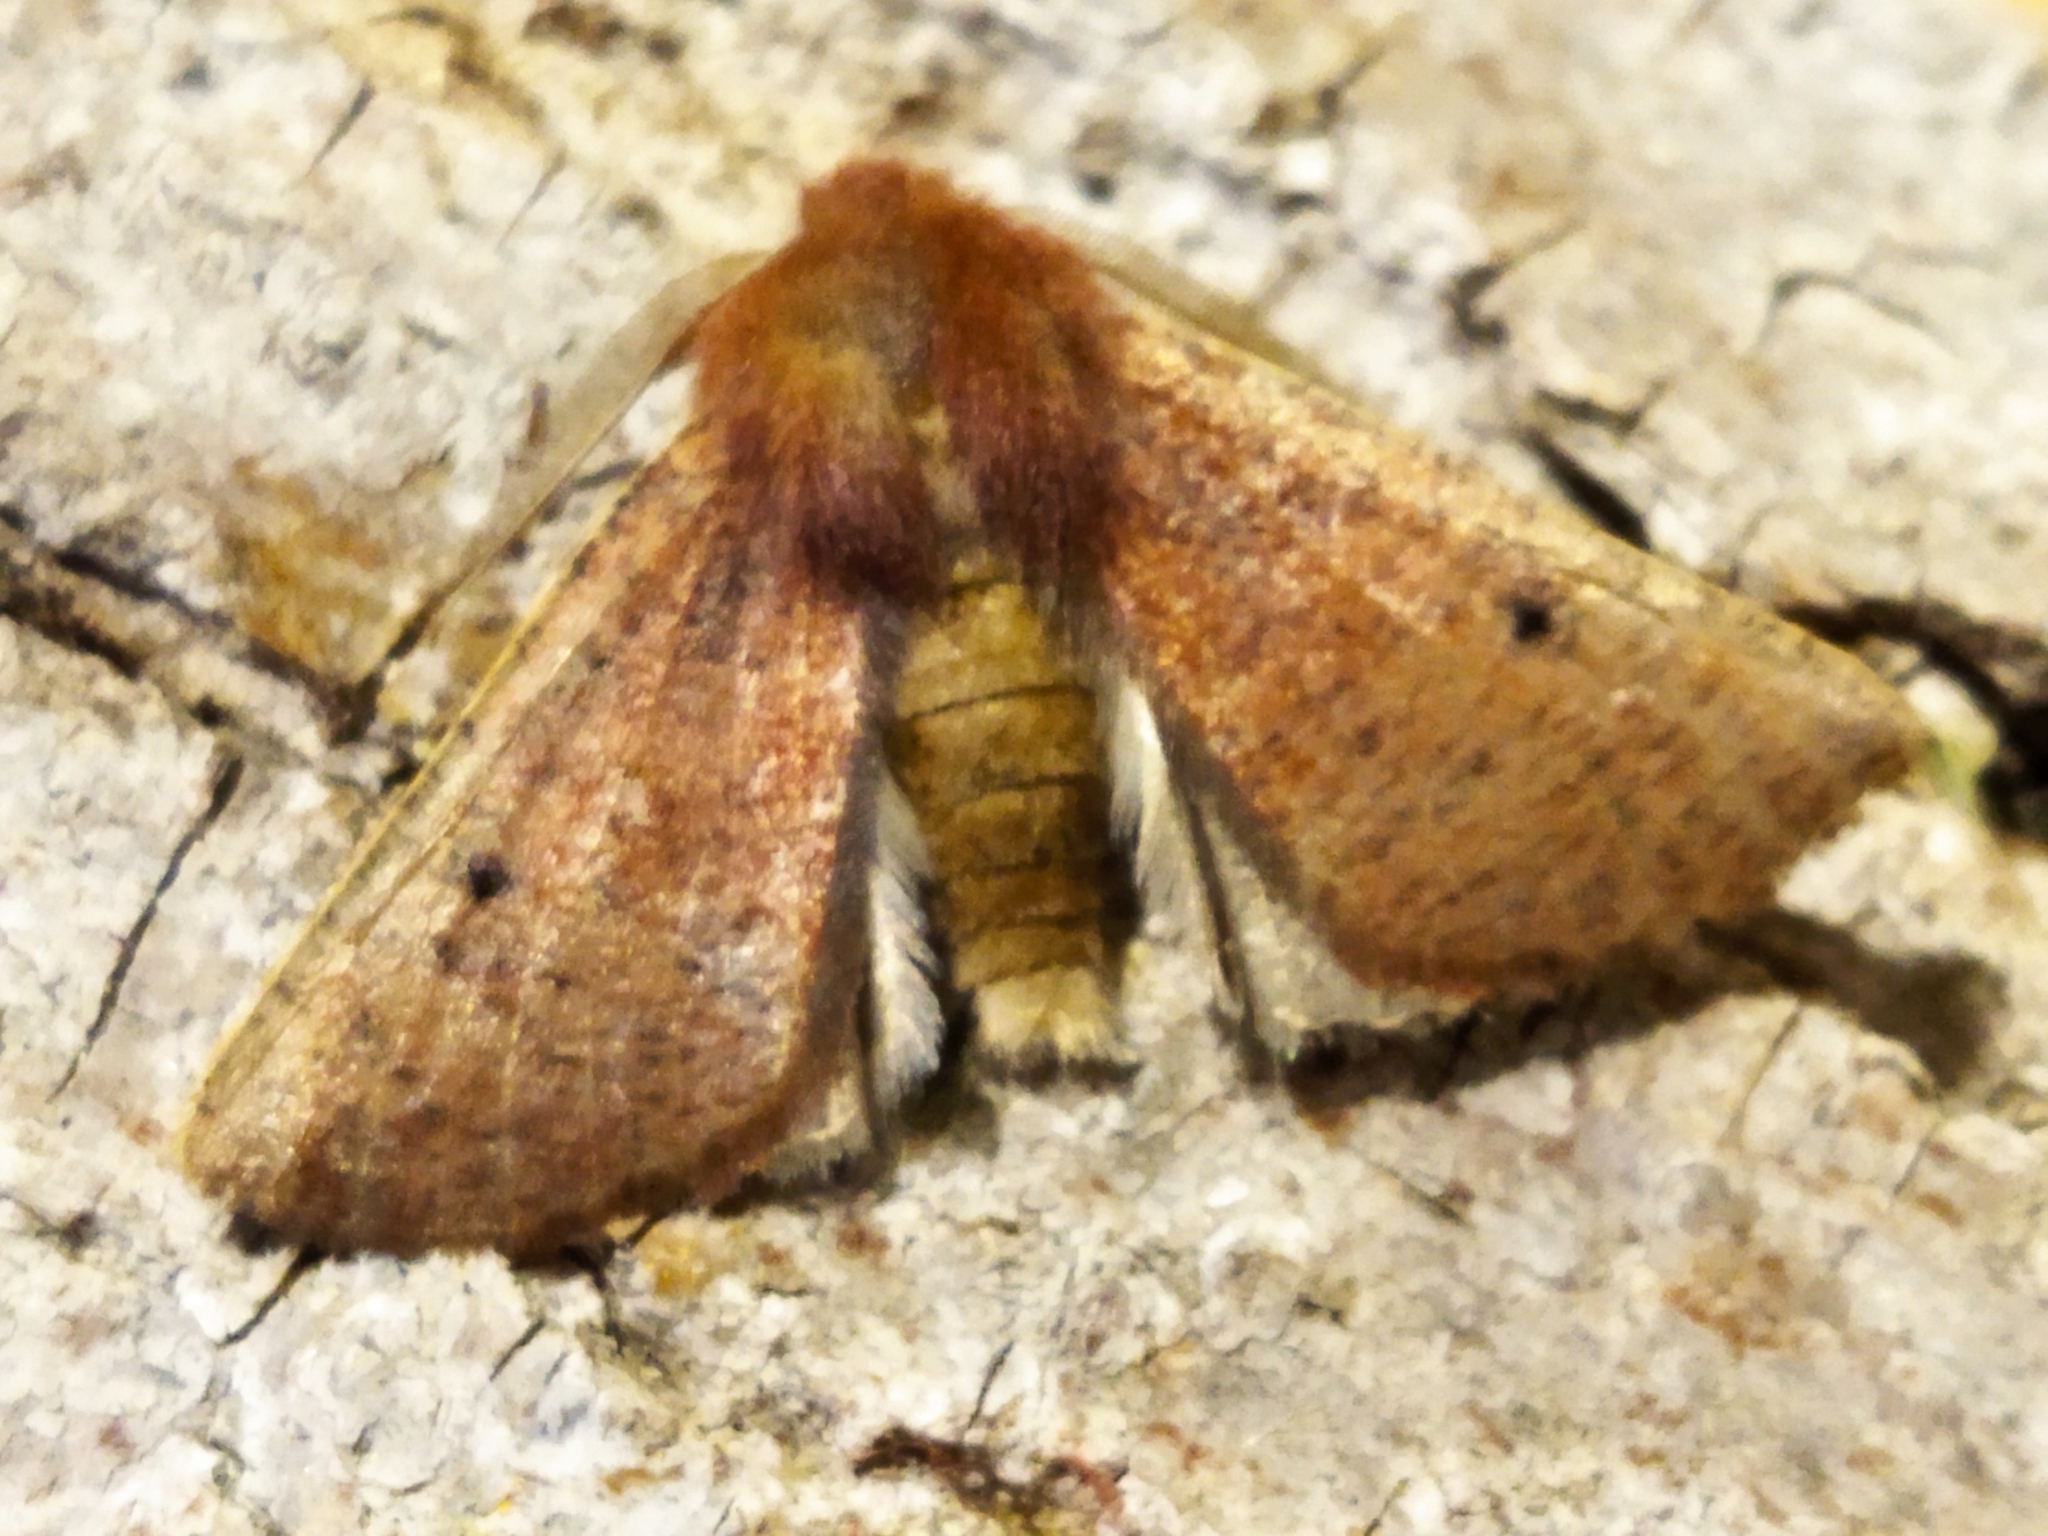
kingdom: Animalia
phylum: Arthropoda
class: Insecta
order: Lepidoptera
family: Geometridae
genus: Dasycorsa
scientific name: Dasycorsa modesta
